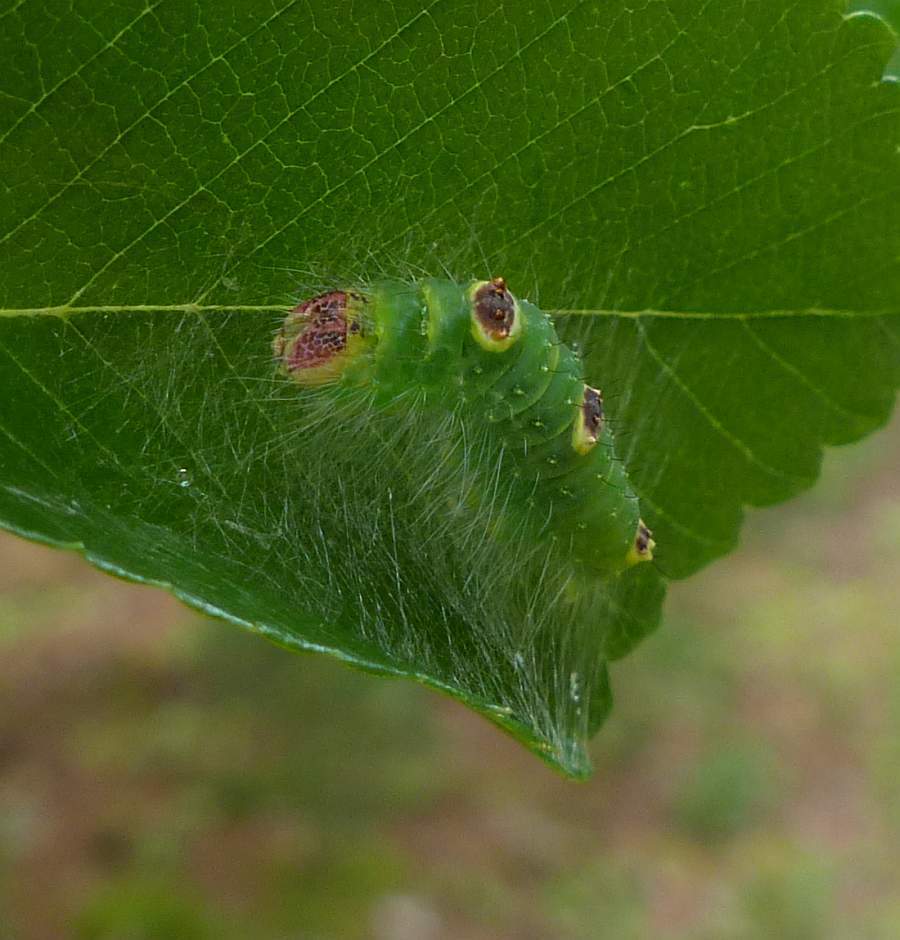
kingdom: Animalia
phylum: Arthropoda
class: Insecta
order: Lepidoptera
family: Noctuidae
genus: Acronicta
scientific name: Acronicta morula
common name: Ochre dagger
